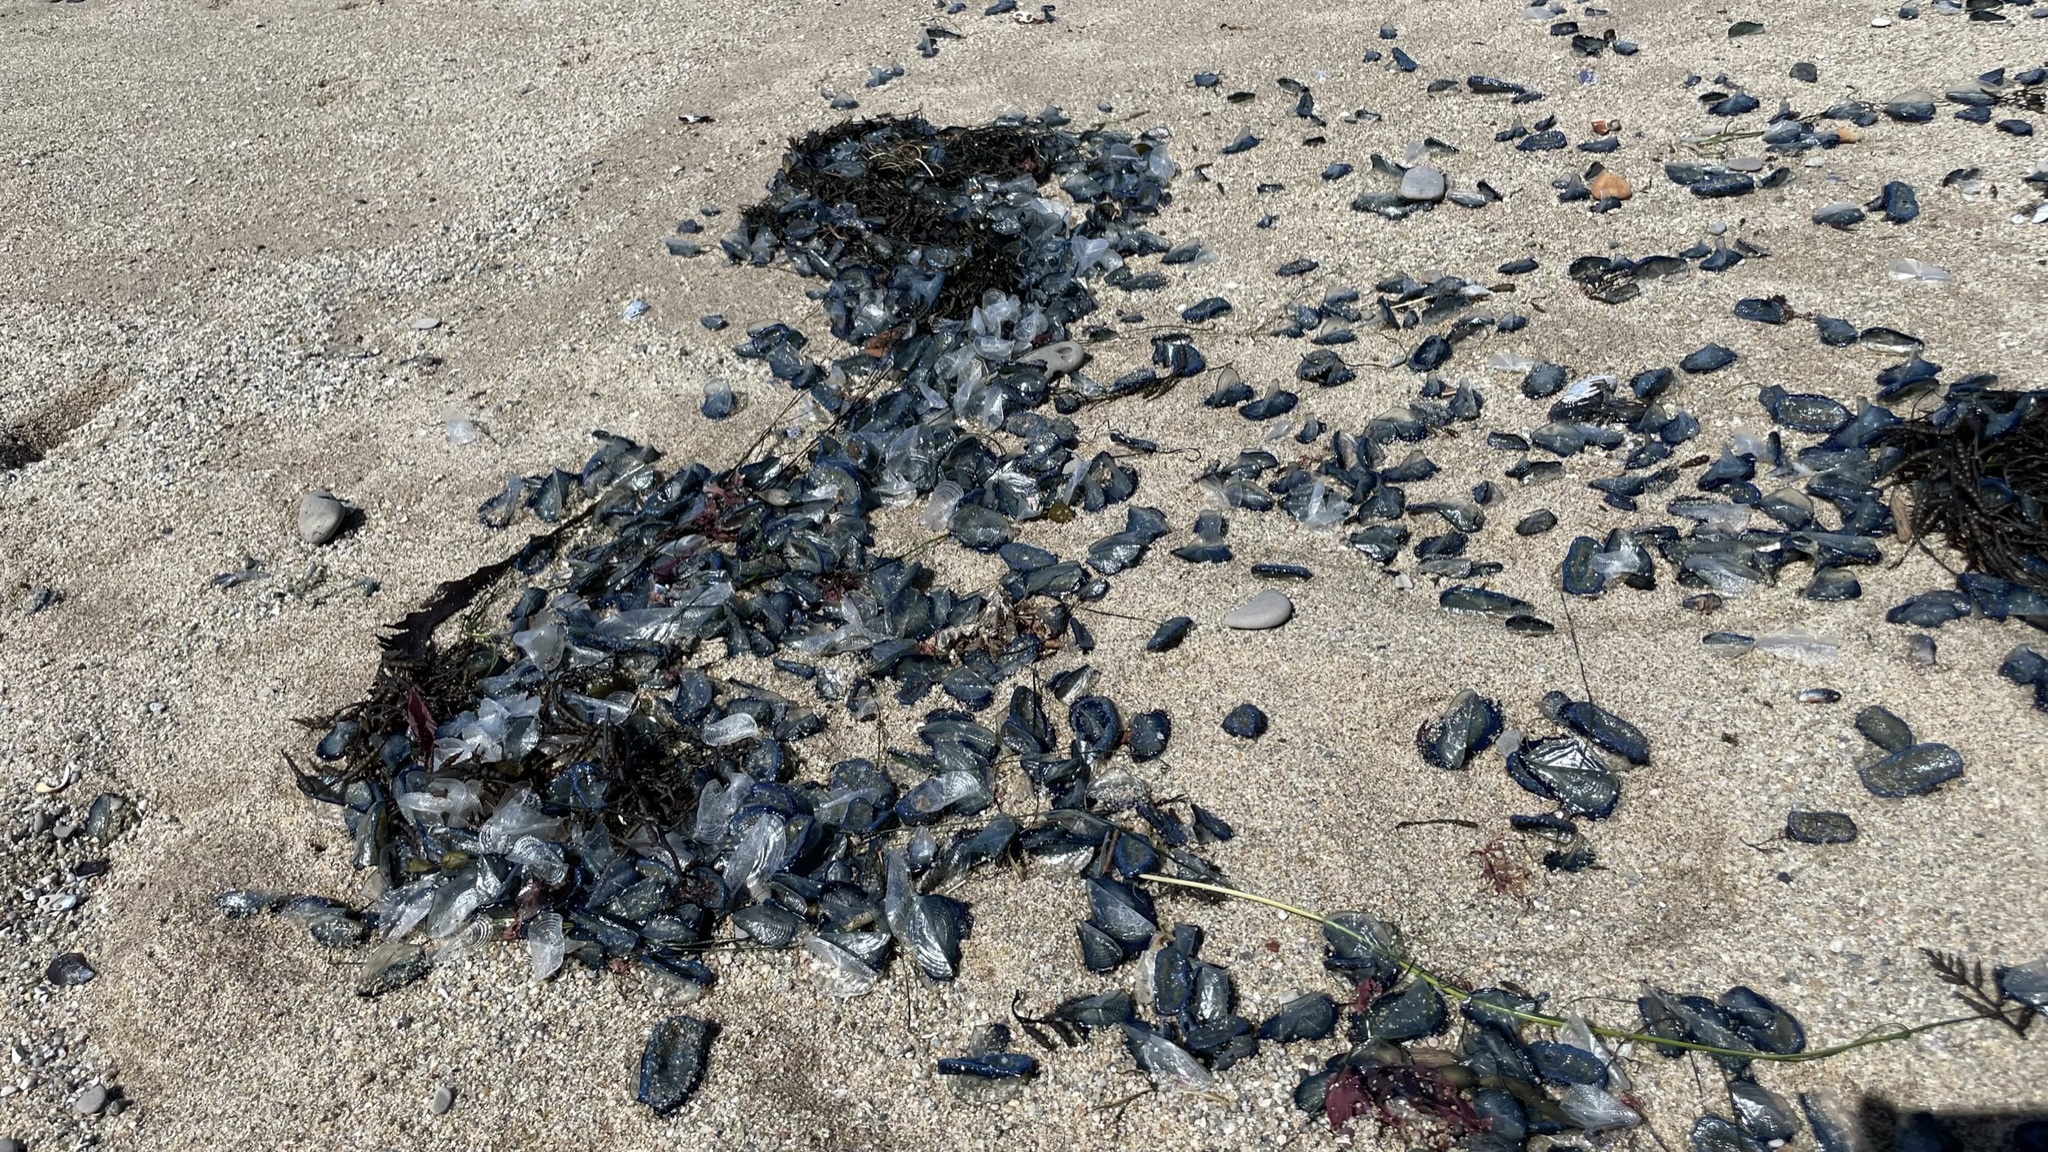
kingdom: Animalia
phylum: Cnidaria
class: Hydrozoa
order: Anthoathecata
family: Porpitidae
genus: Velella
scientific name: Velella velella
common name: By-the-wind-sailor
